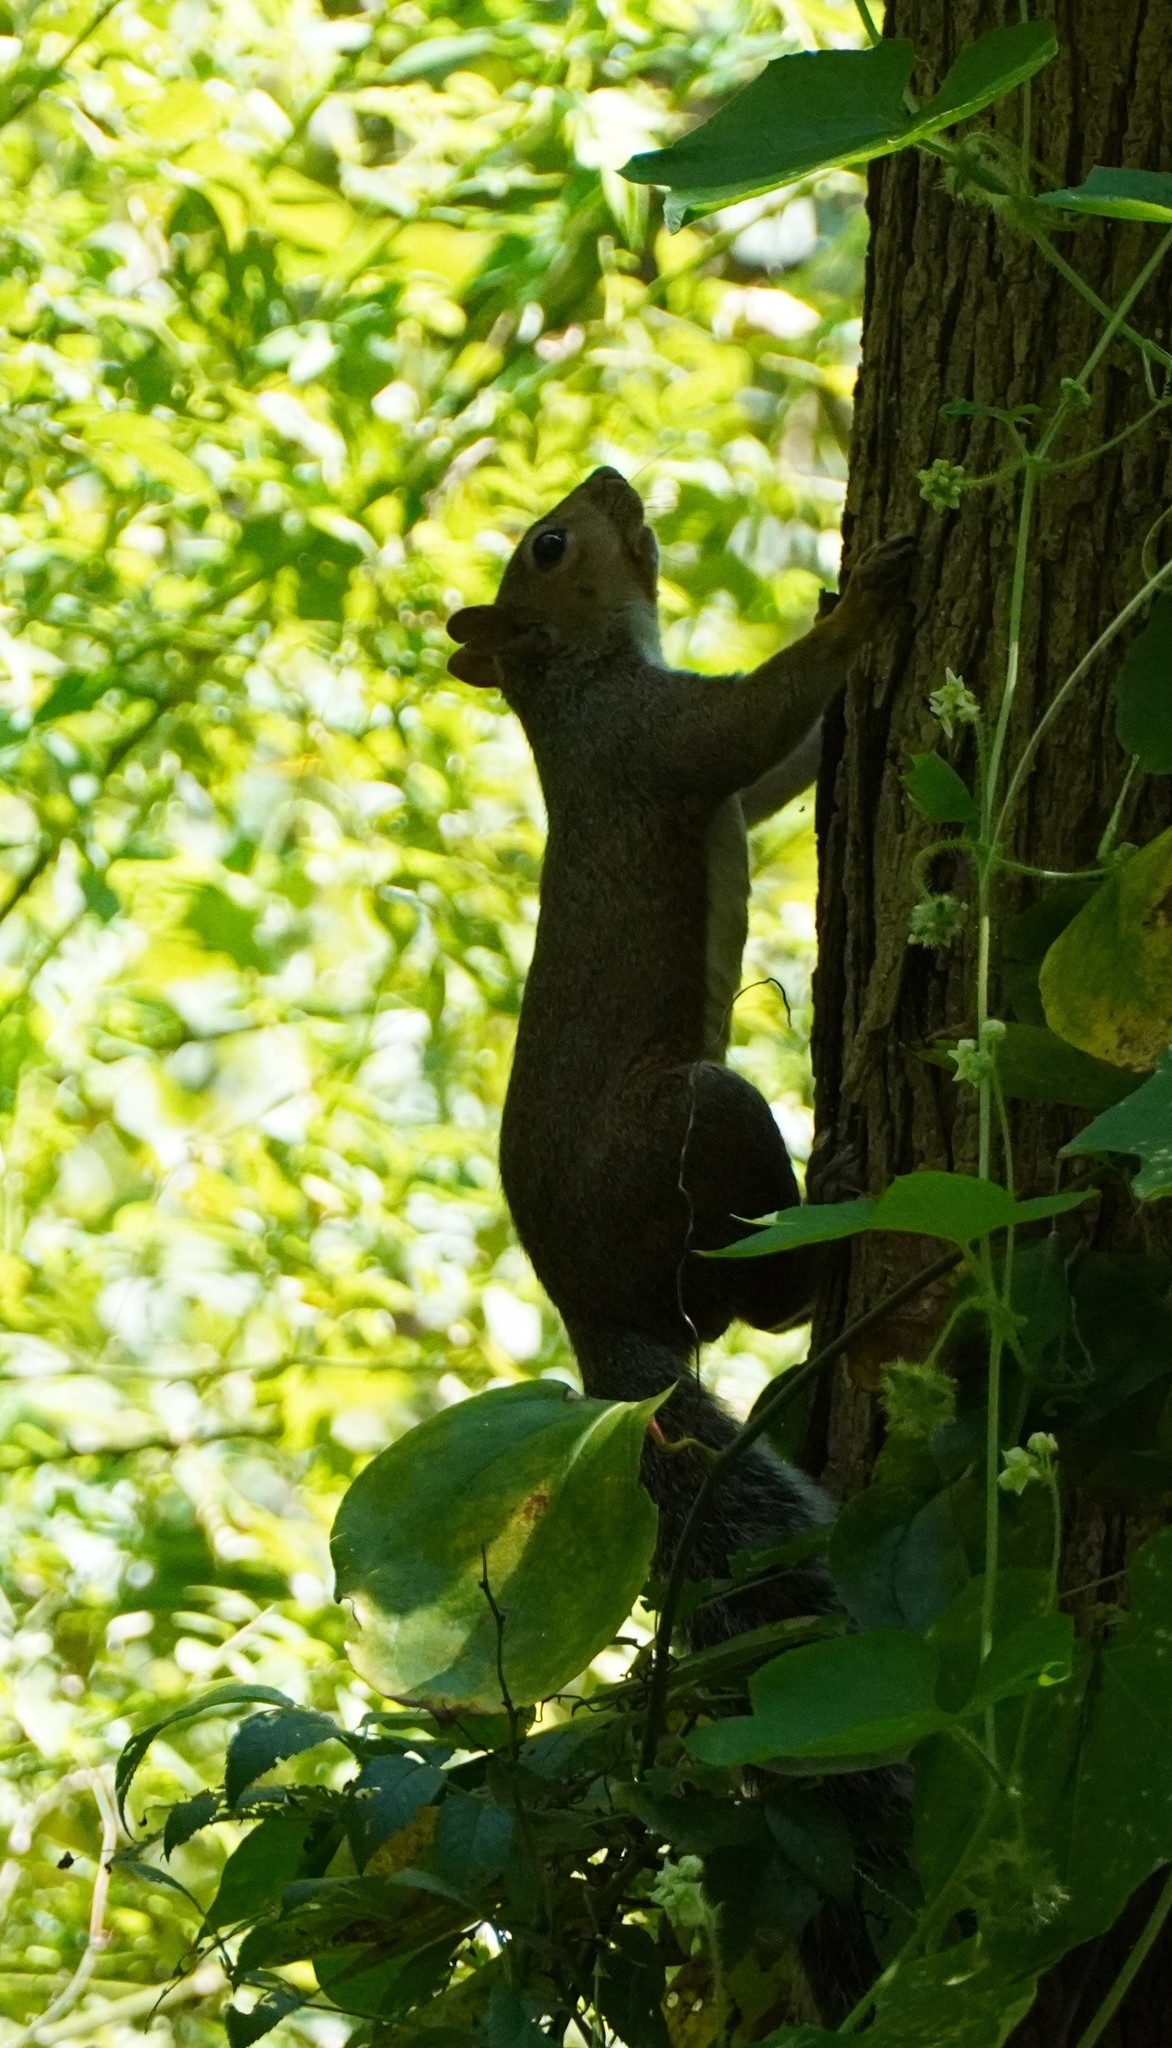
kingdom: Animalia
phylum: Chordata
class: Mammalia
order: Rodentia
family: Sciuridae
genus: Sciurus
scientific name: Sciurus carolinensis
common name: Eastern gray squirrel
